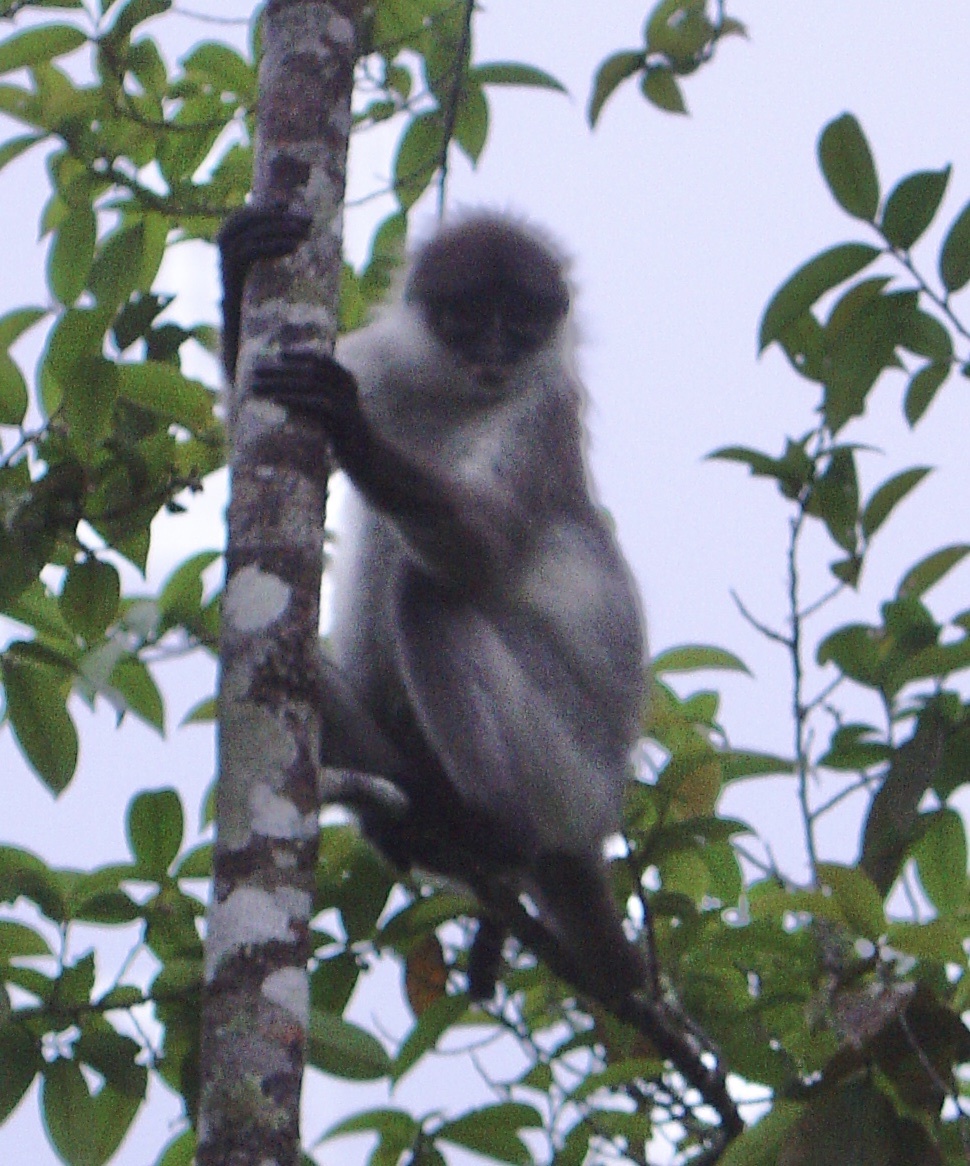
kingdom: Animalia
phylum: Chordata
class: Mammalia
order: Primates
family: Cercopithecidae
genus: Presbytis
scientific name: Presbytis siamensis
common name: White-thighed surili
